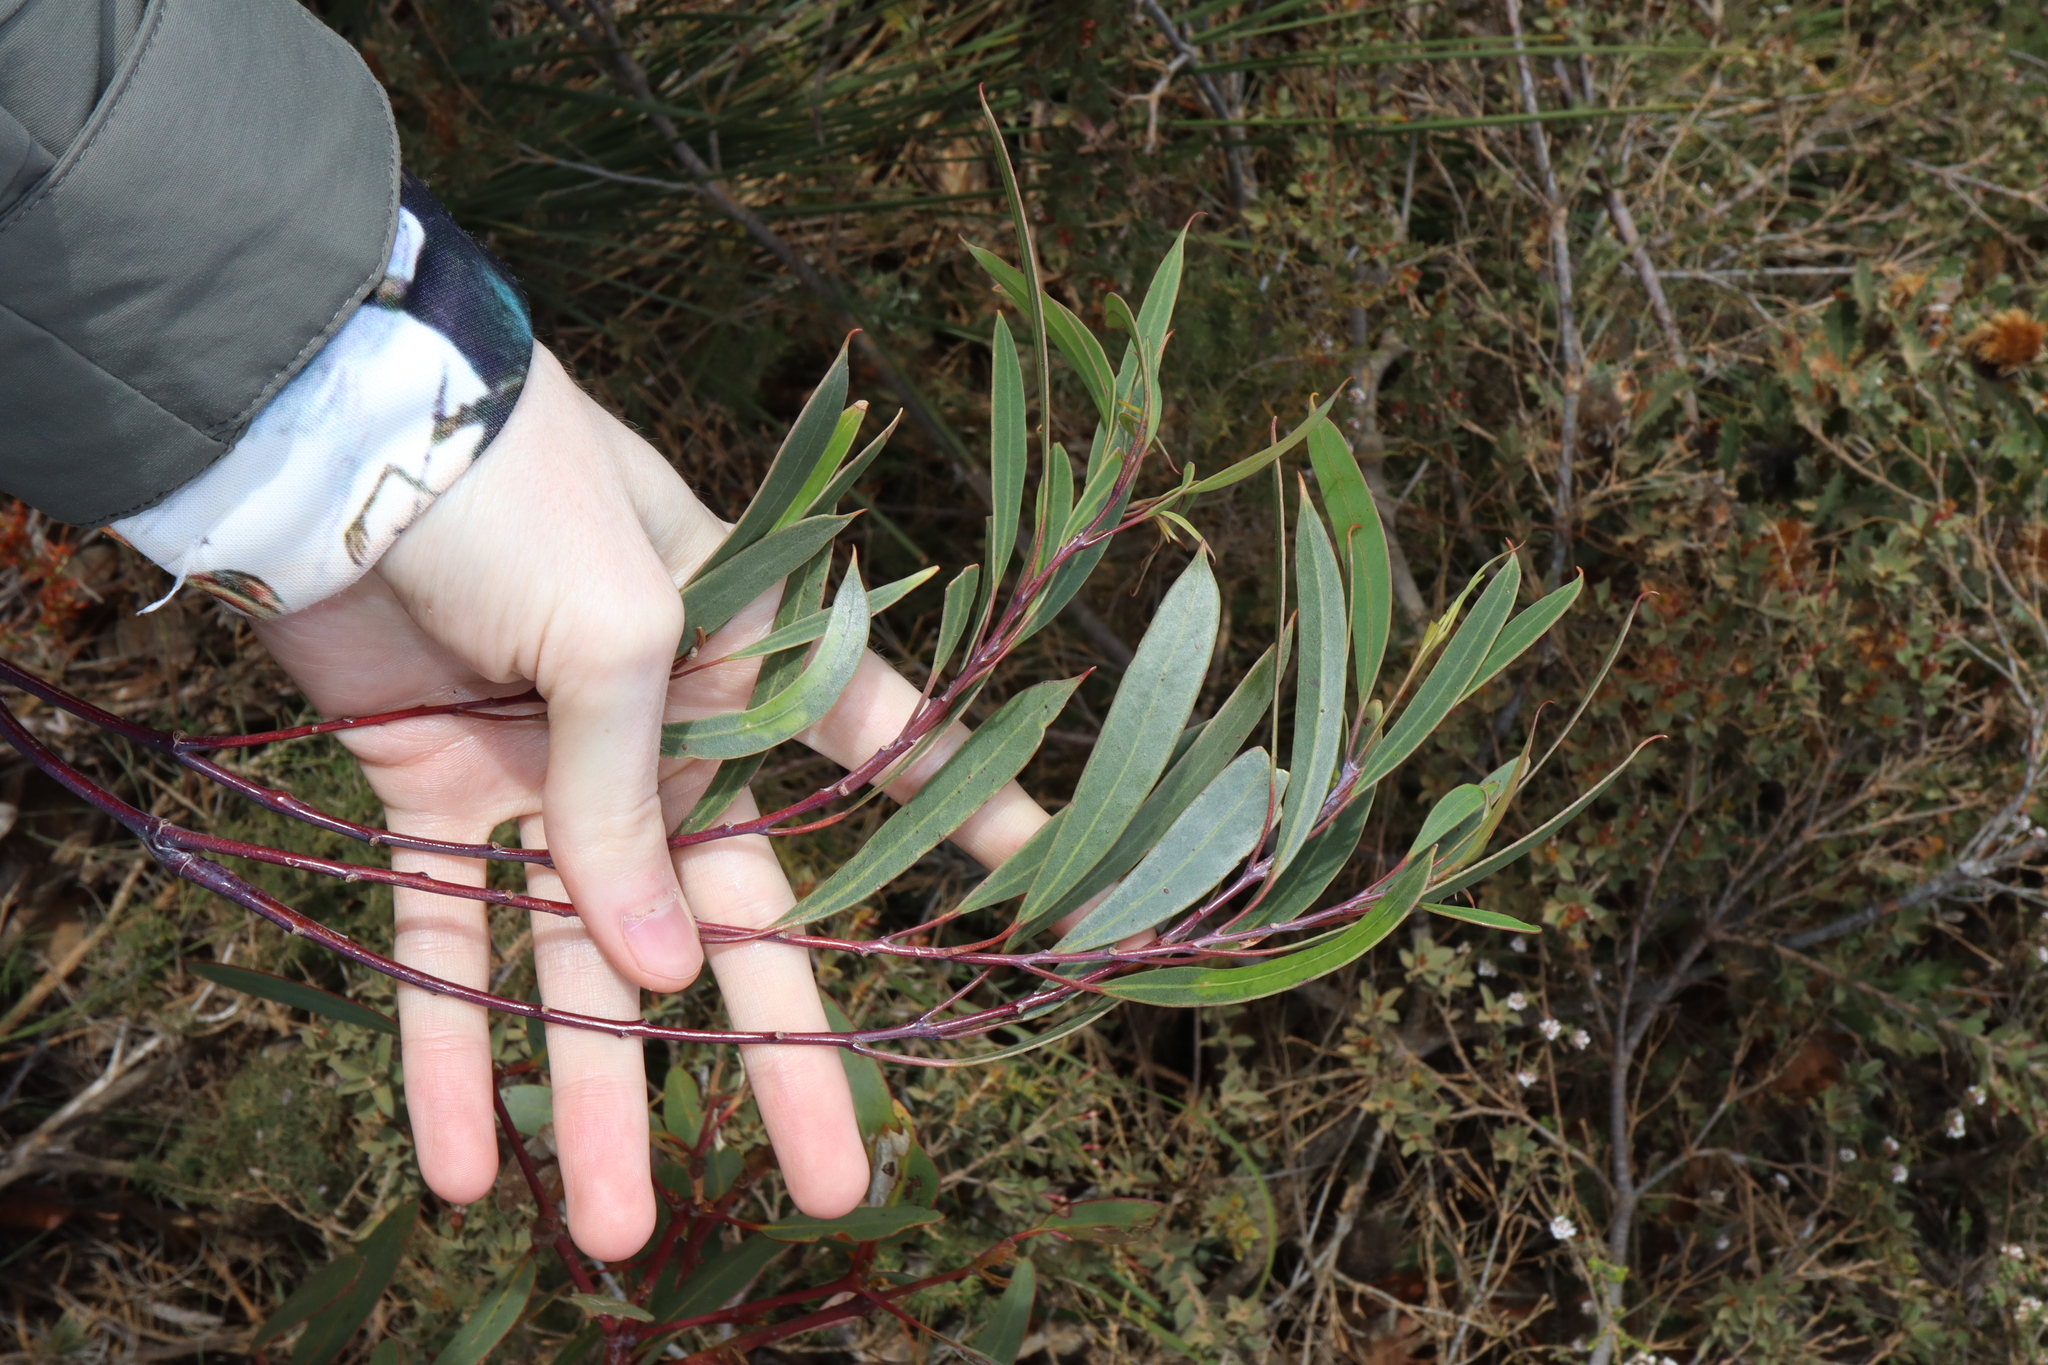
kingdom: Plantae
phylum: Tracheophyta
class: Magnoliopsida
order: Myrtales
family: Myrtaceae
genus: Eucalyptus
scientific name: Eucalyptus sepulcralis
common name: Weeping mallee
